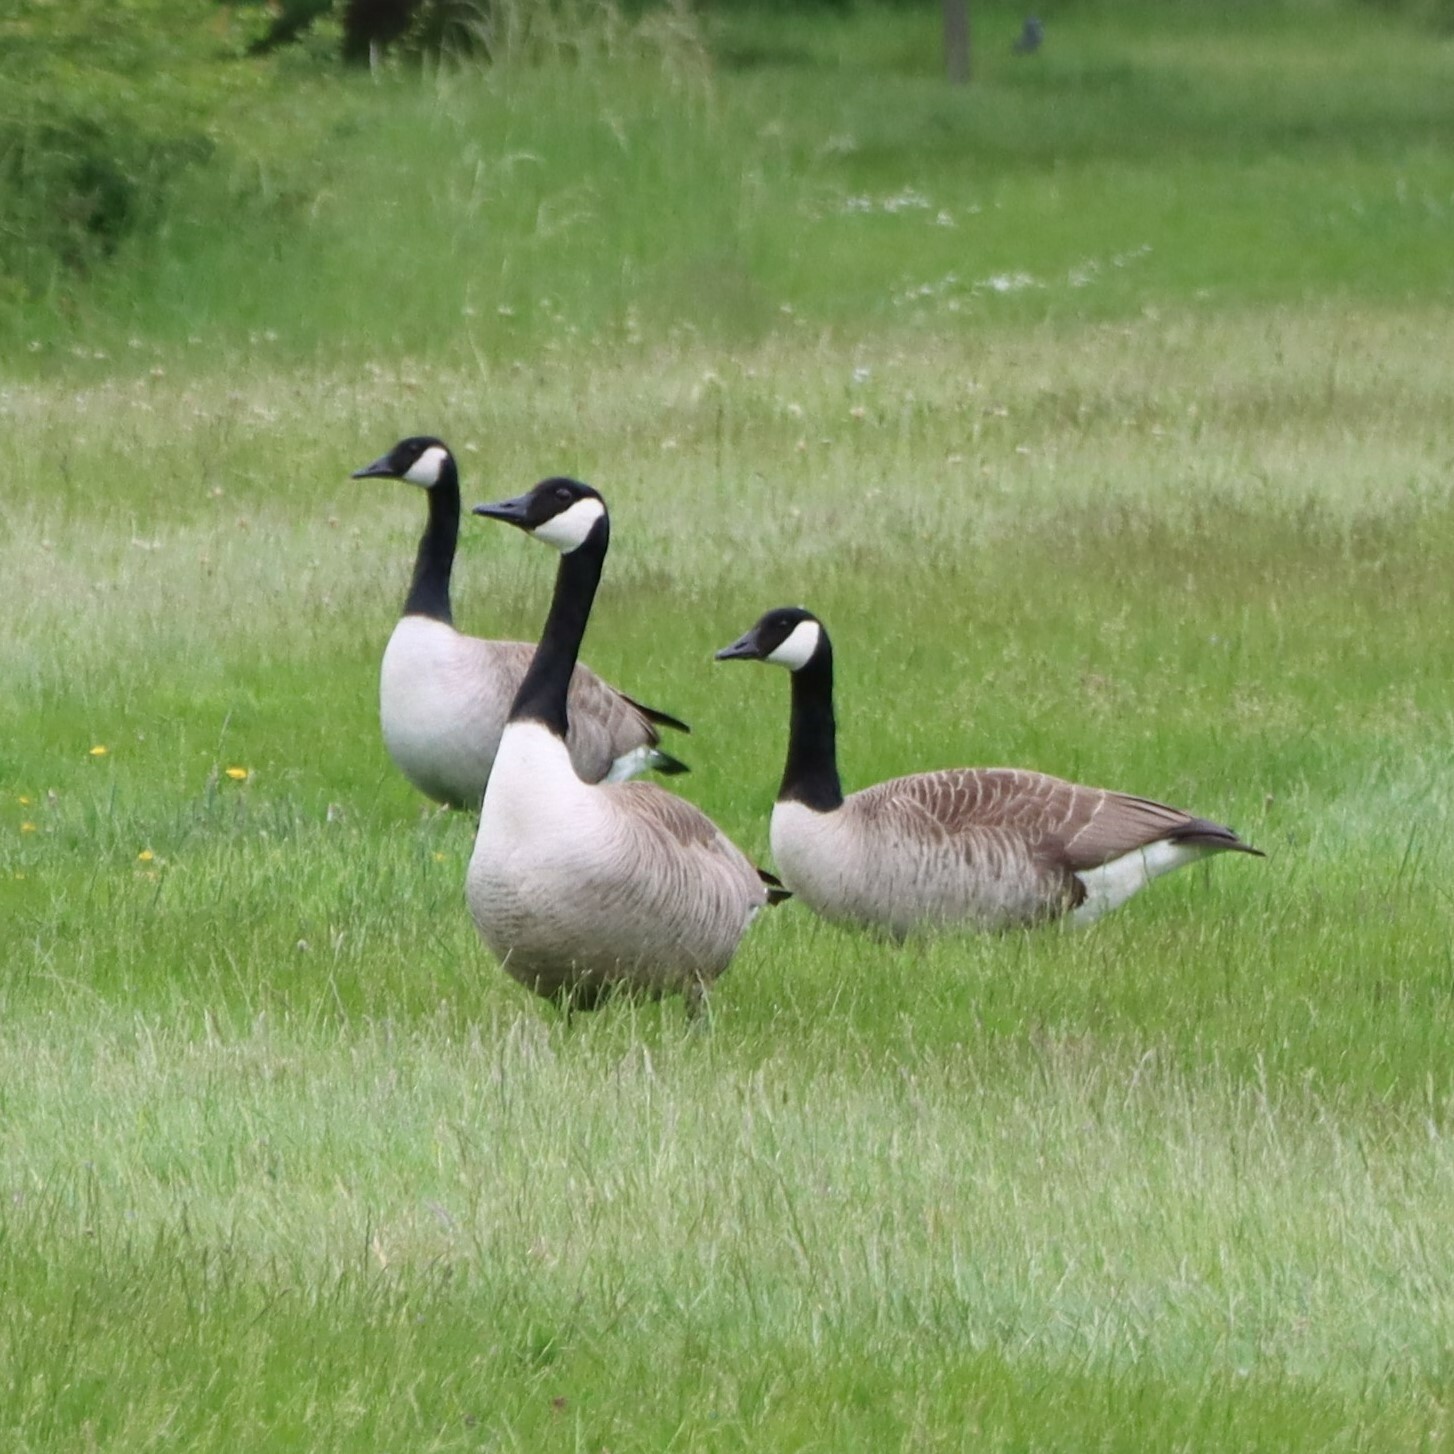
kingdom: Animalia
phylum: Chordata
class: Aves
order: Anseriformes
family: Anatidae
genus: Branta
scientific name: Branta canadensis
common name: Canada goose
